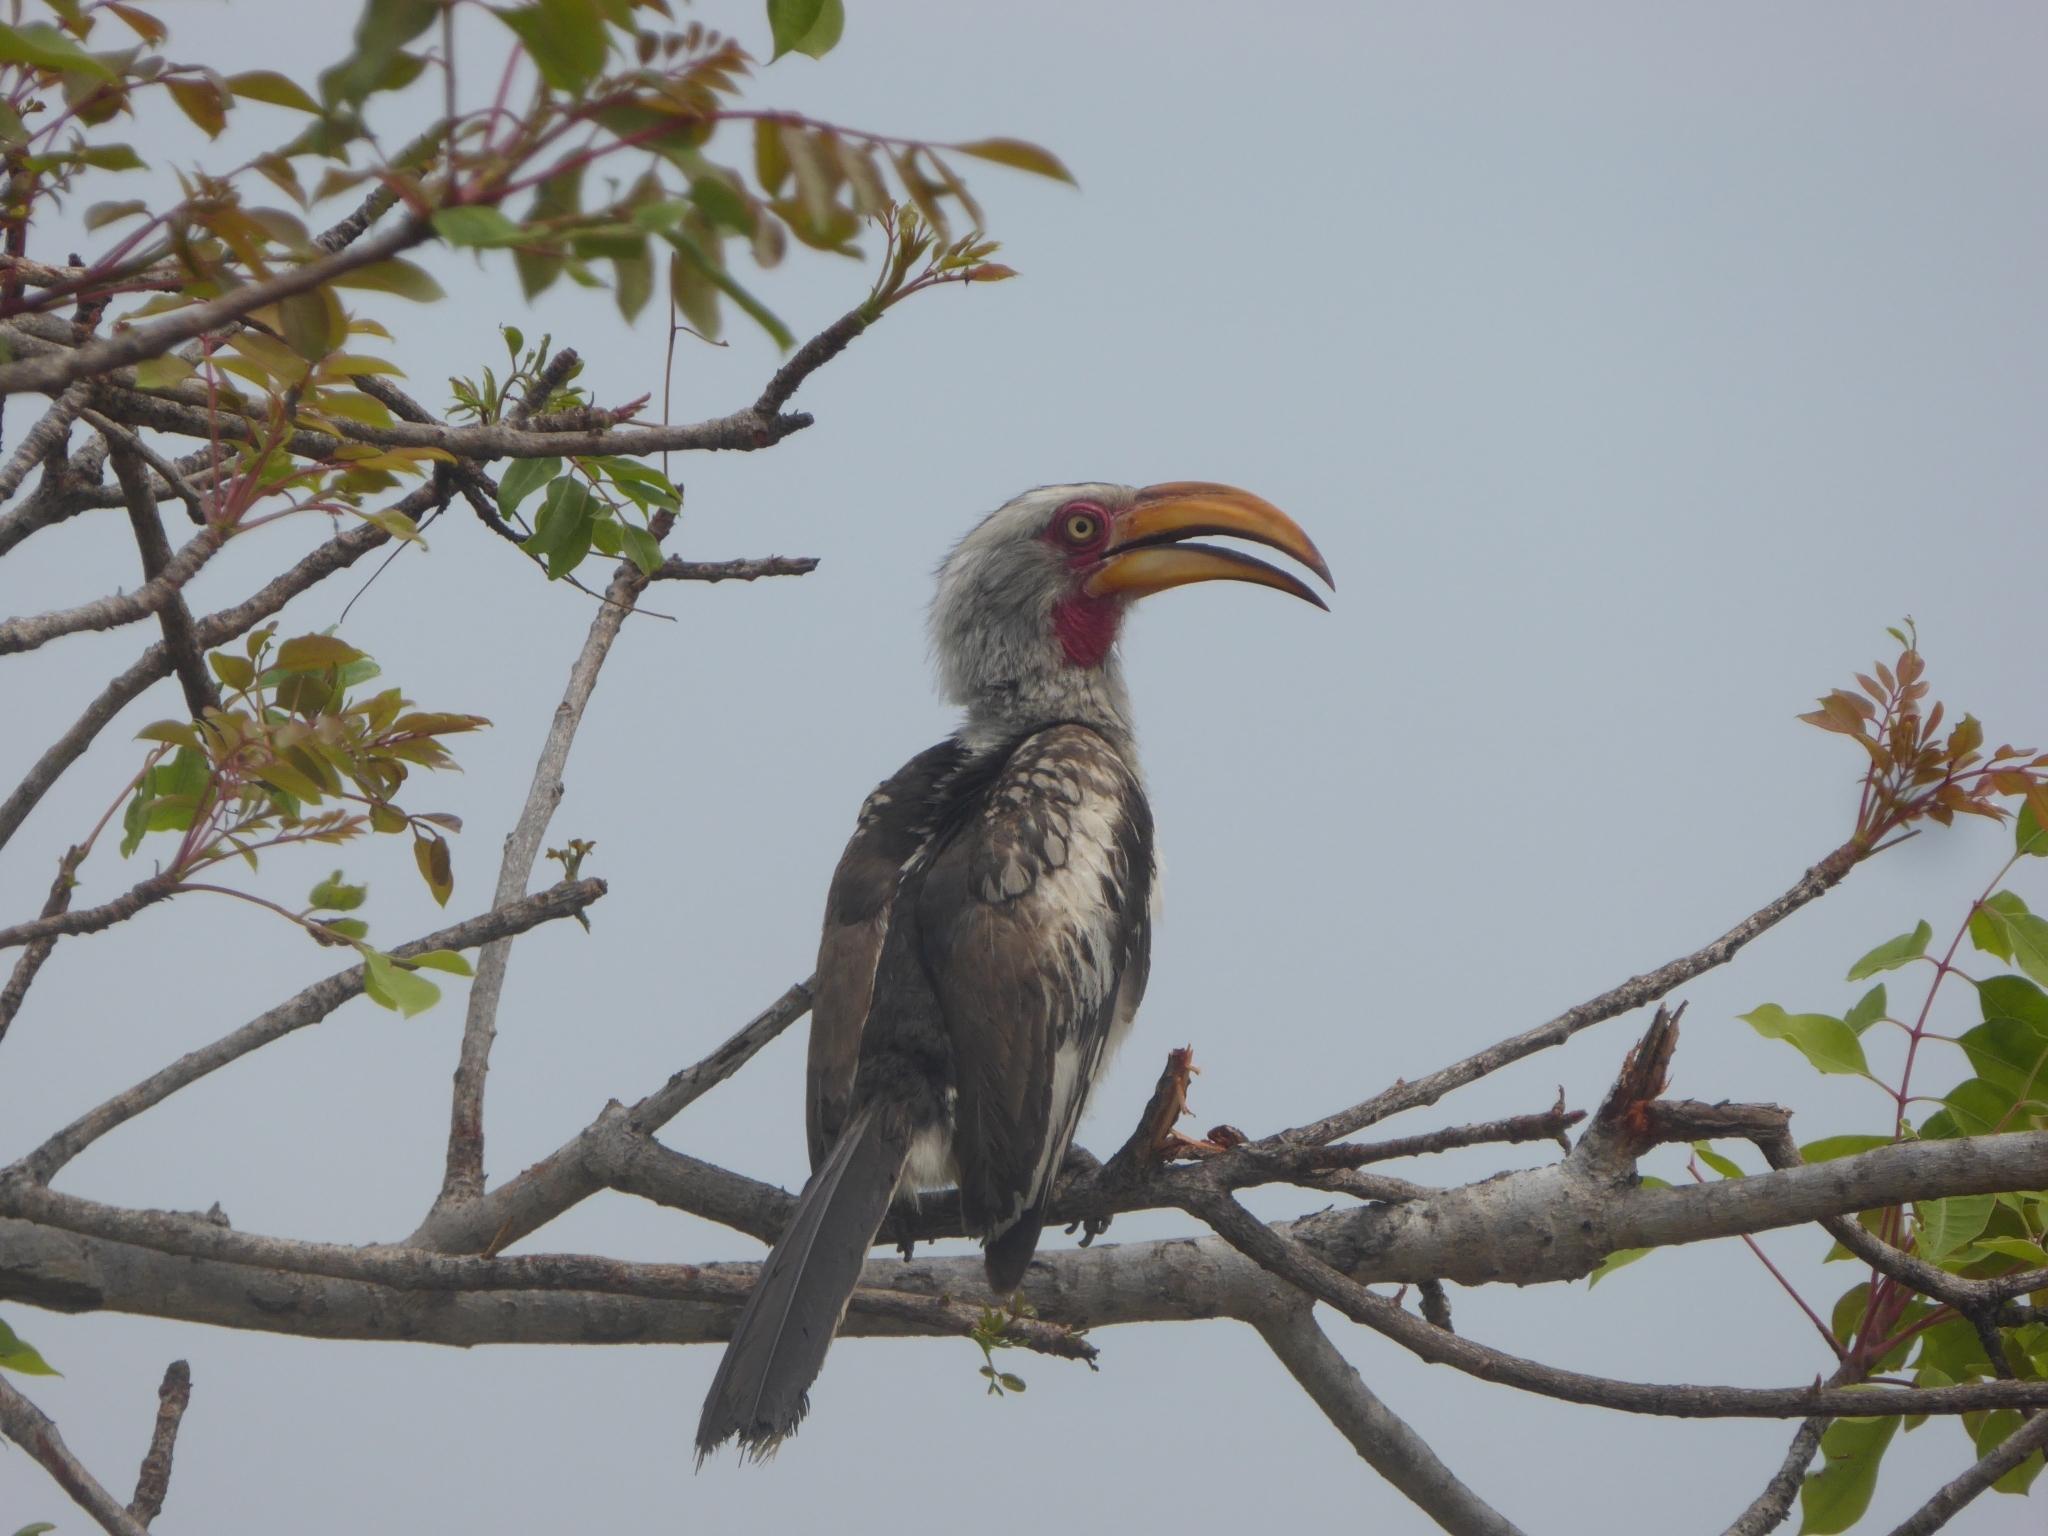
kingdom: Animalia
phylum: Chordata
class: Aves
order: Bucerotiformes
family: Bucerotidae
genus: Tockus
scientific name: Tockus leucomelas
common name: Southern yellow-billed hornbill
